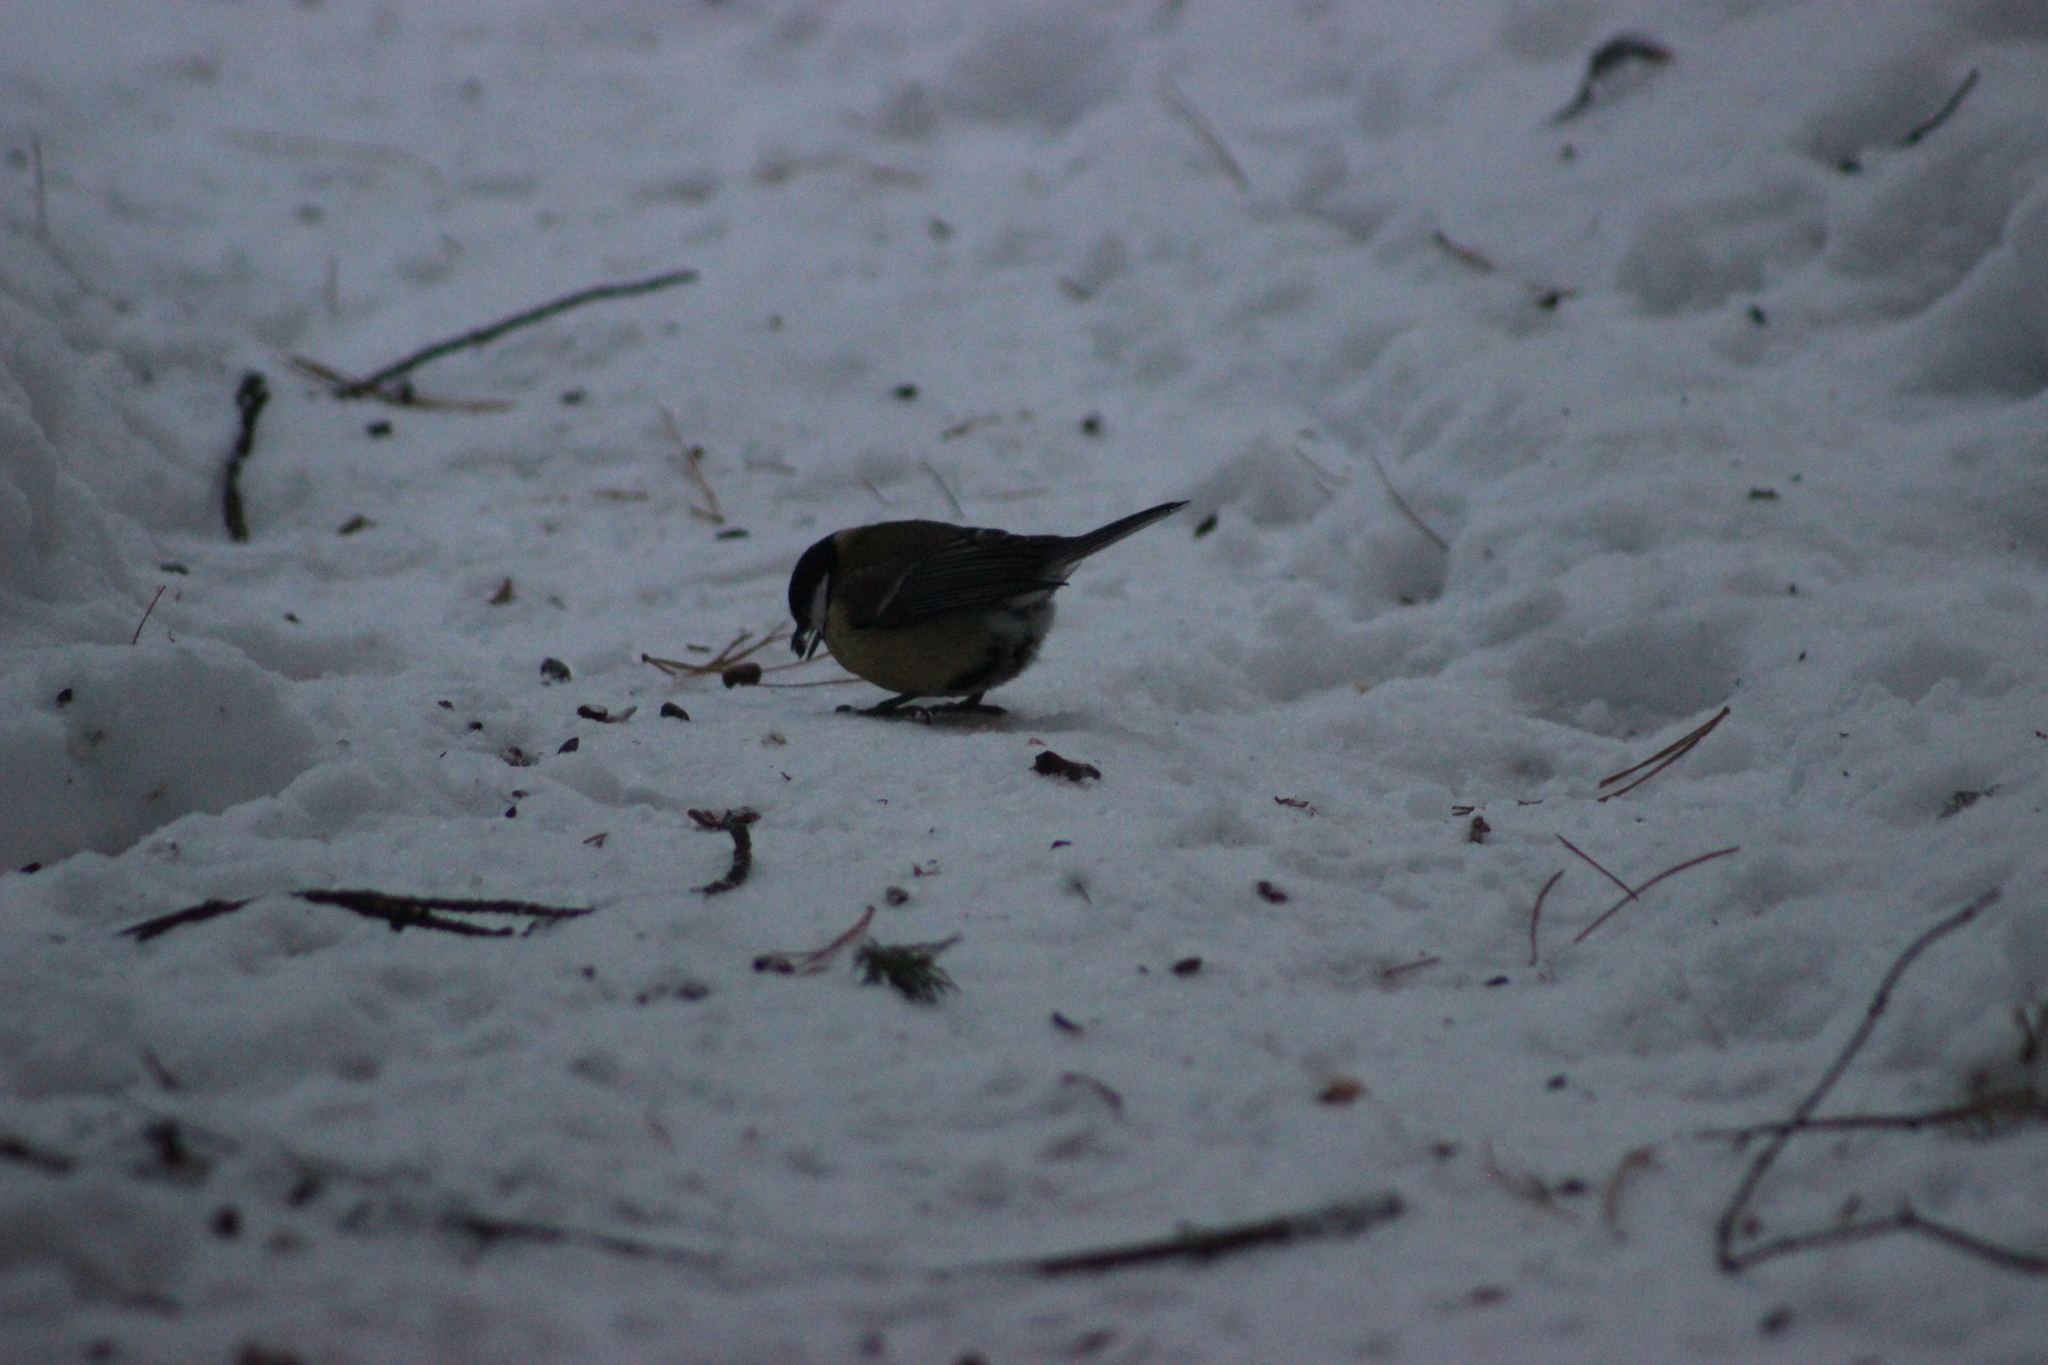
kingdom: Animalia
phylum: Chordata
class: Aves
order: Passeriformes
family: Paridae
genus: Parus
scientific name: Parus major
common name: Great tit
